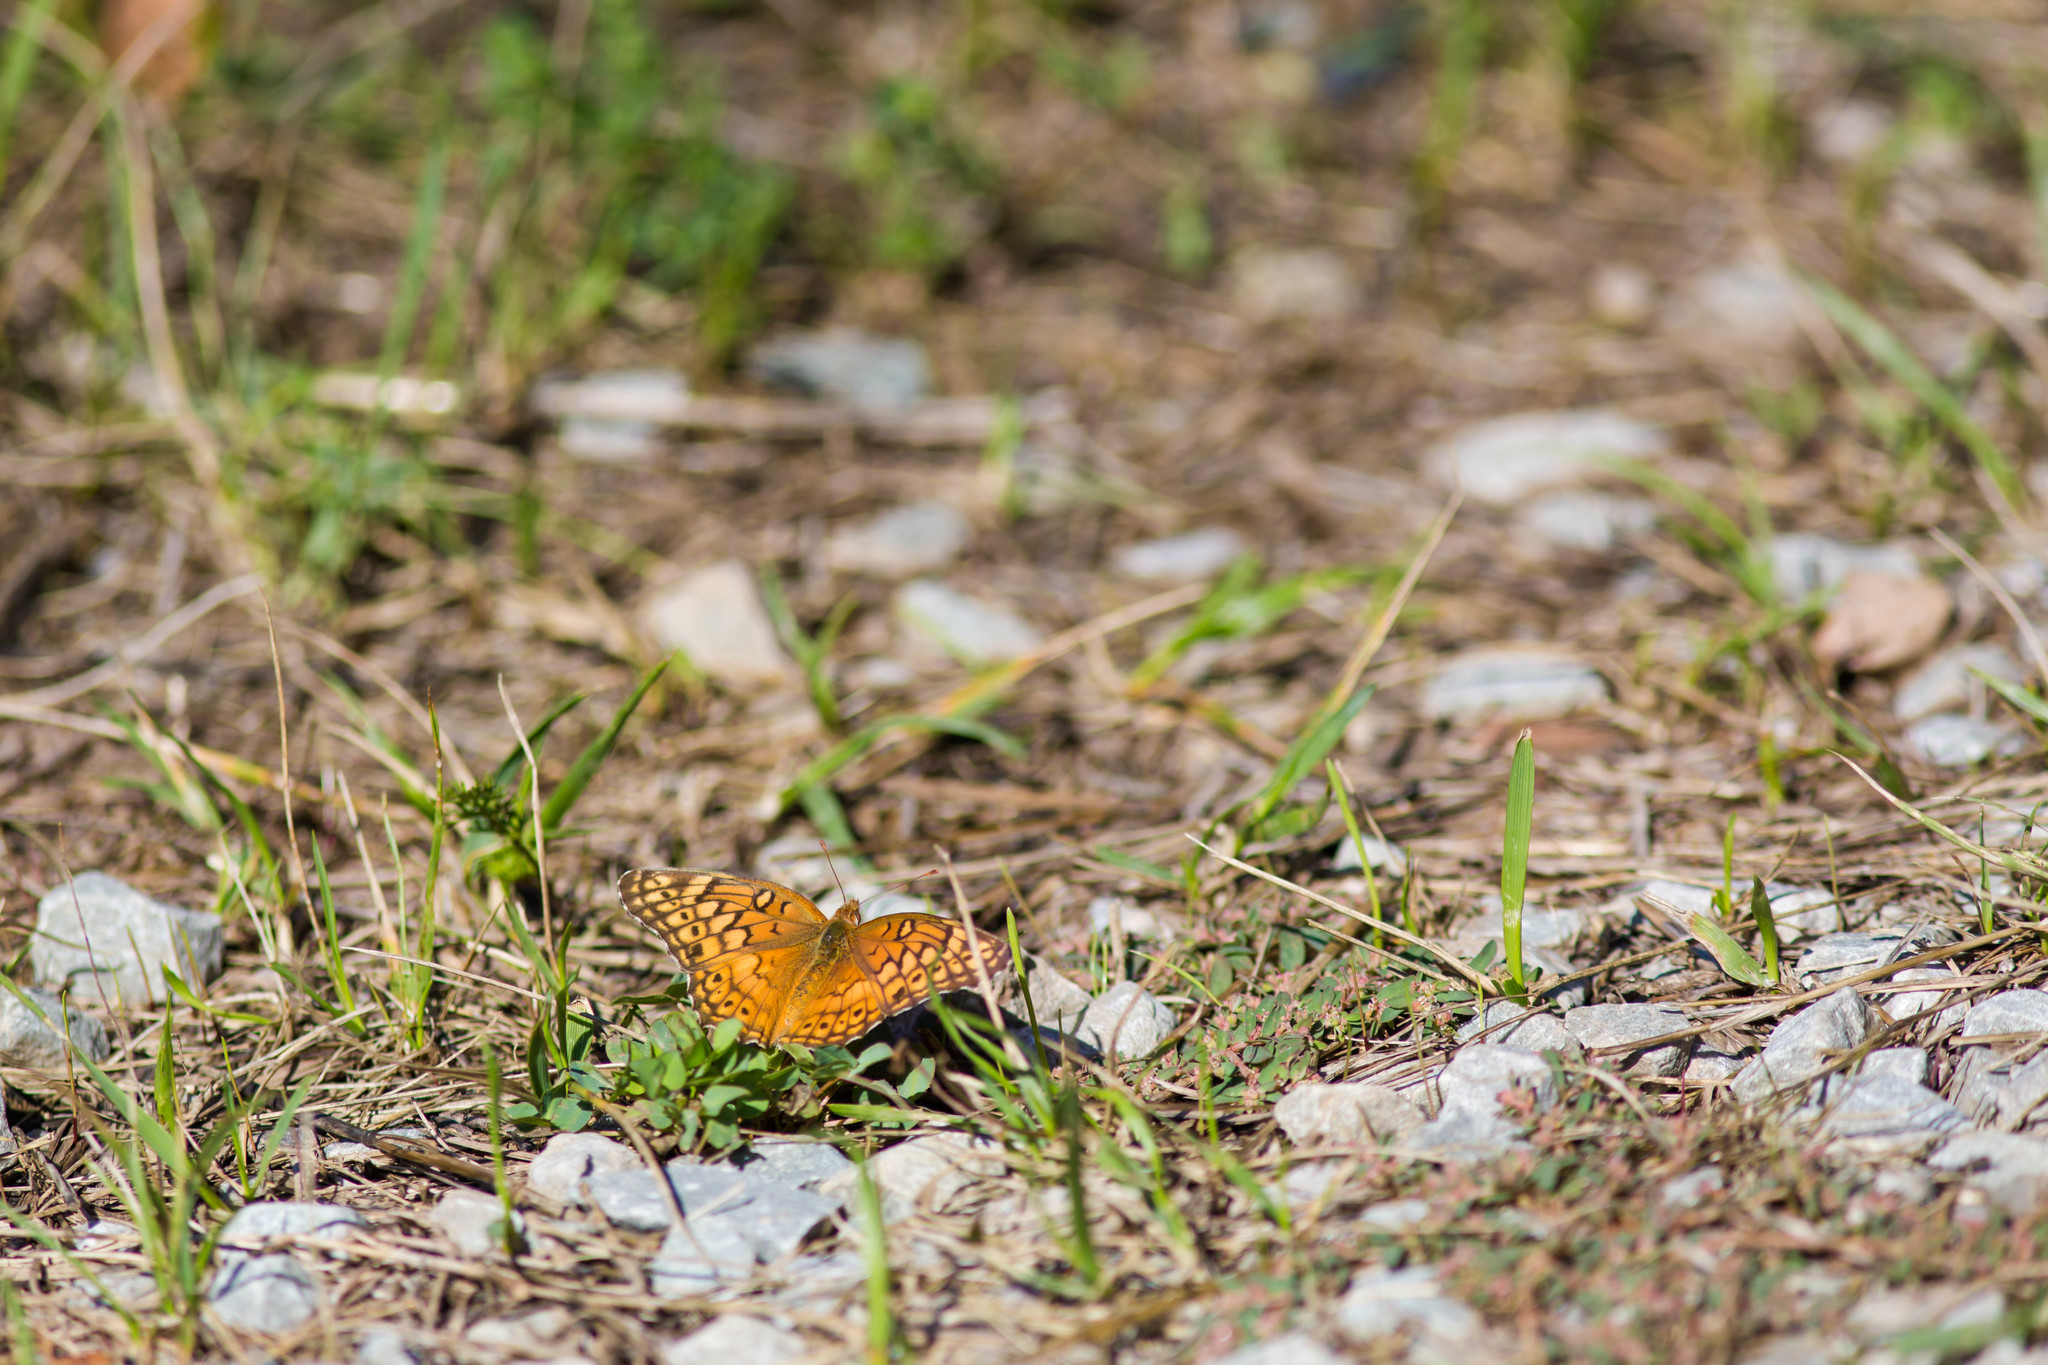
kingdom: Animalia
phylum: Arthropoda
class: Insecta
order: Lepidoptera
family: Nymphalidae
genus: Euptoieta
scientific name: Euptoieta claudia
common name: Variegated fritillary
